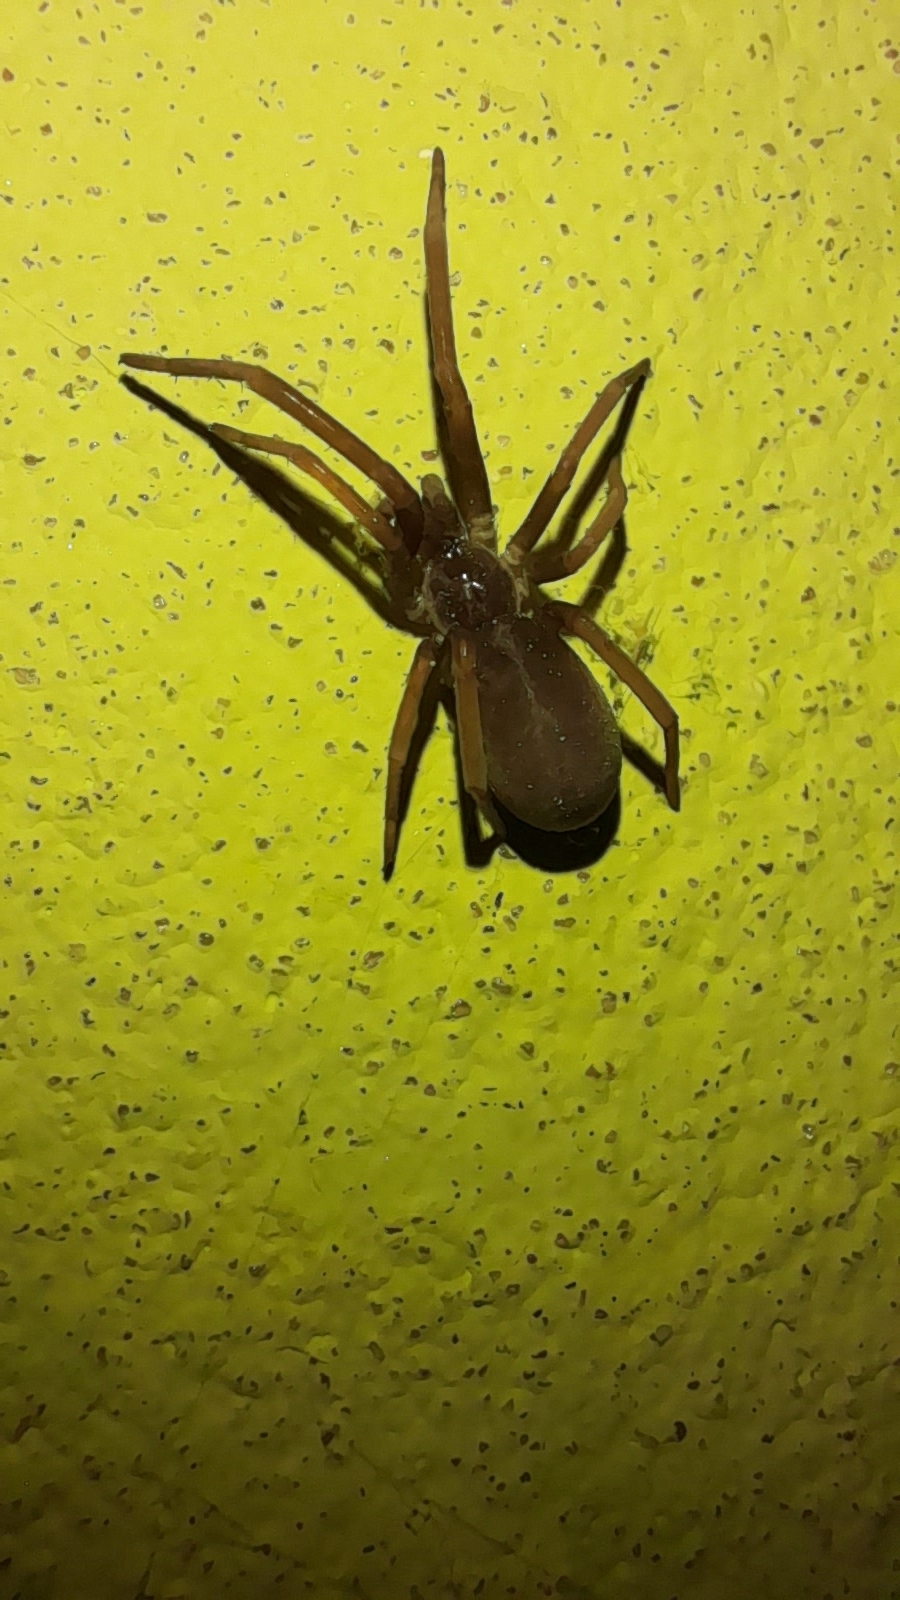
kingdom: Animalia
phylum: Arthropoda
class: Arachnida
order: Araneae
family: Filistatidae
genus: Kukulcania
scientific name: Kukulcania hibernalis
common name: Crevice weaver
